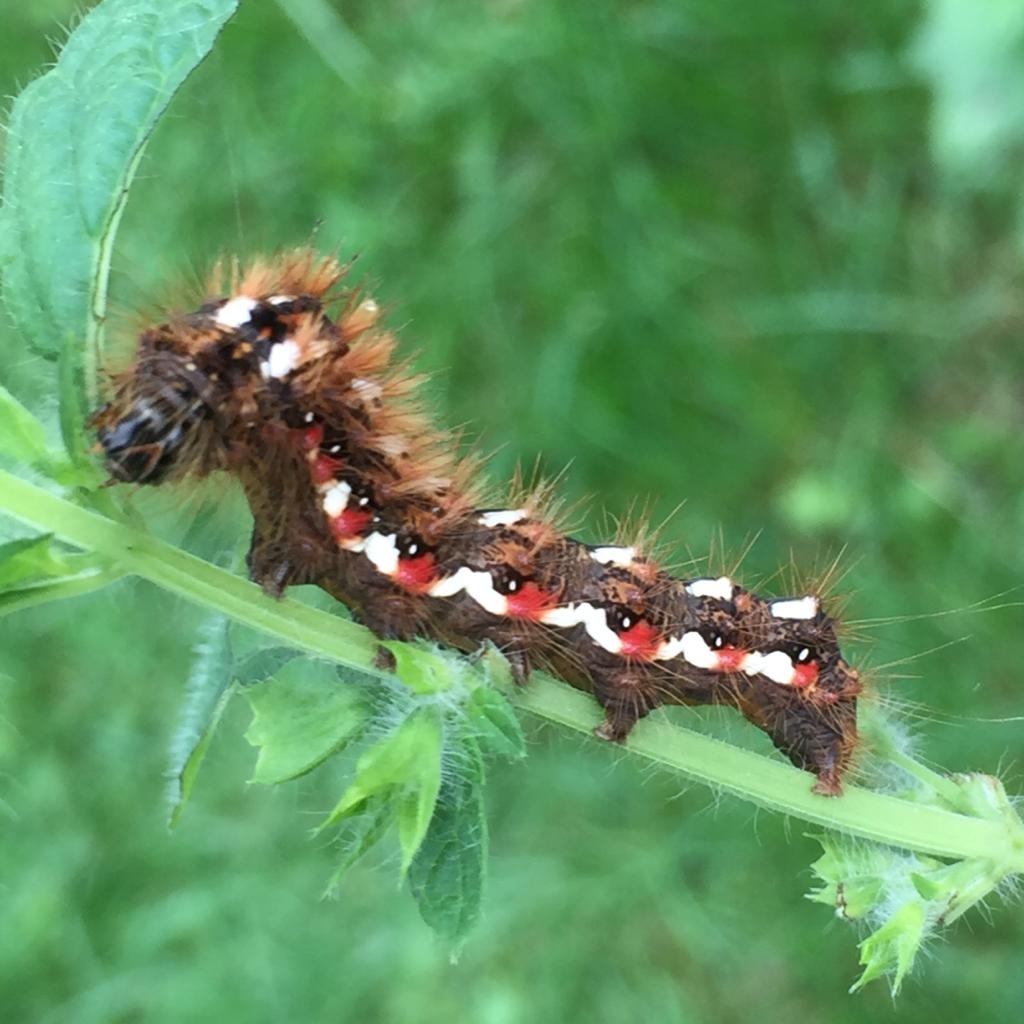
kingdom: Animalia
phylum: Arthropoda
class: Insecta
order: Lepidoptera
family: Noctuidae
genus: Acronicta
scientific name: Acronicta rumicis
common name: Knot grass
